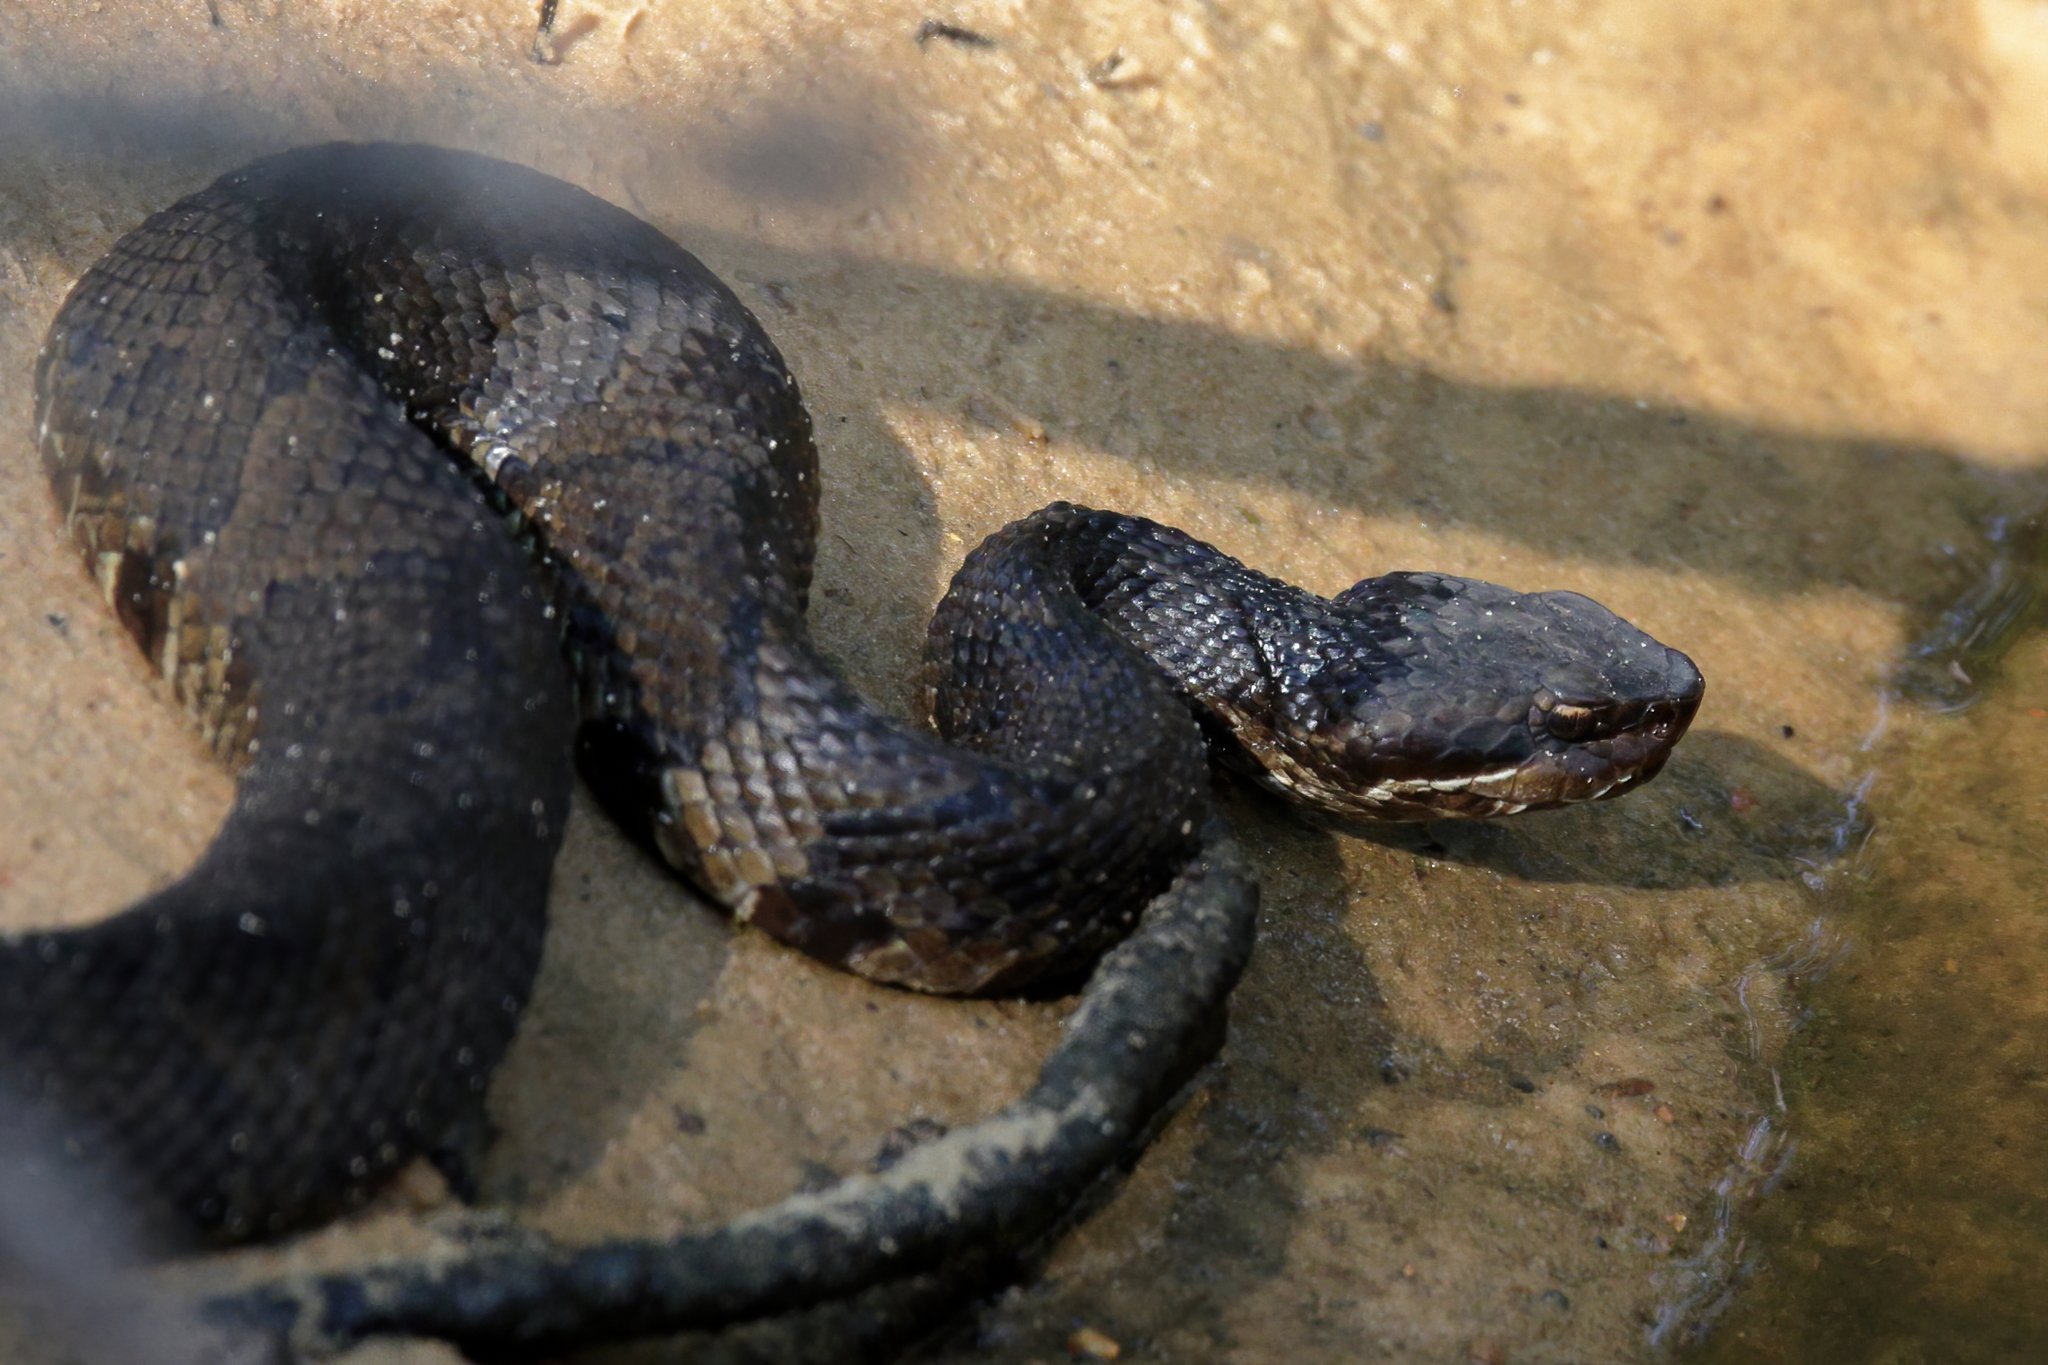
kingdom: Animalia
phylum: Chordata
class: Squamata
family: Viperidae
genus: Agkistrodon
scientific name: Agkistrodon piscivorus
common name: Cottonmouth
